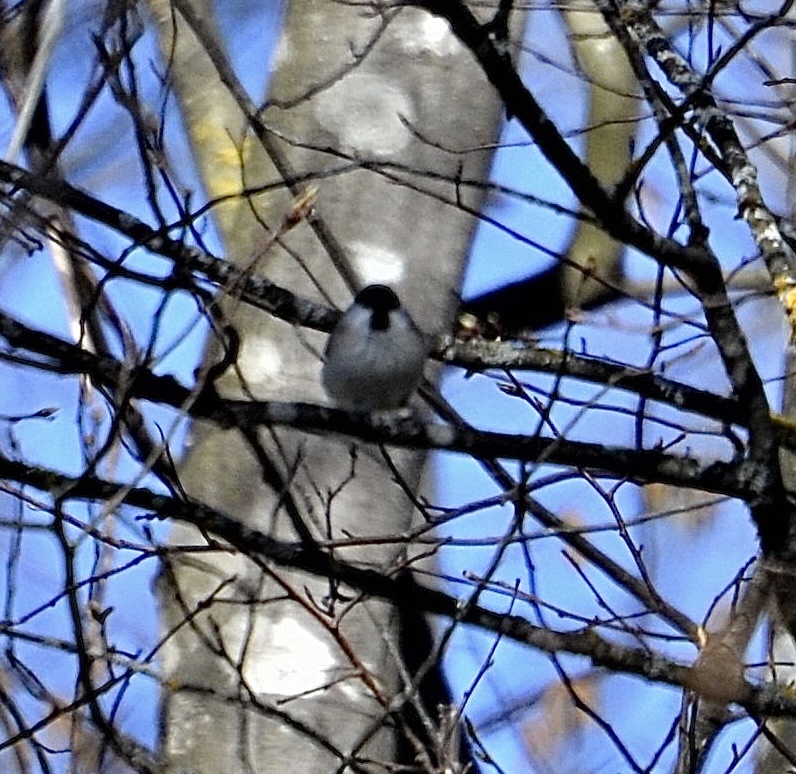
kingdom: Animalia
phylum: Chordata
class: Aves
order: Passeriformes
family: Paridae
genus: Poecile
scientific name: Poecile palustris
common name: Marsh tit
